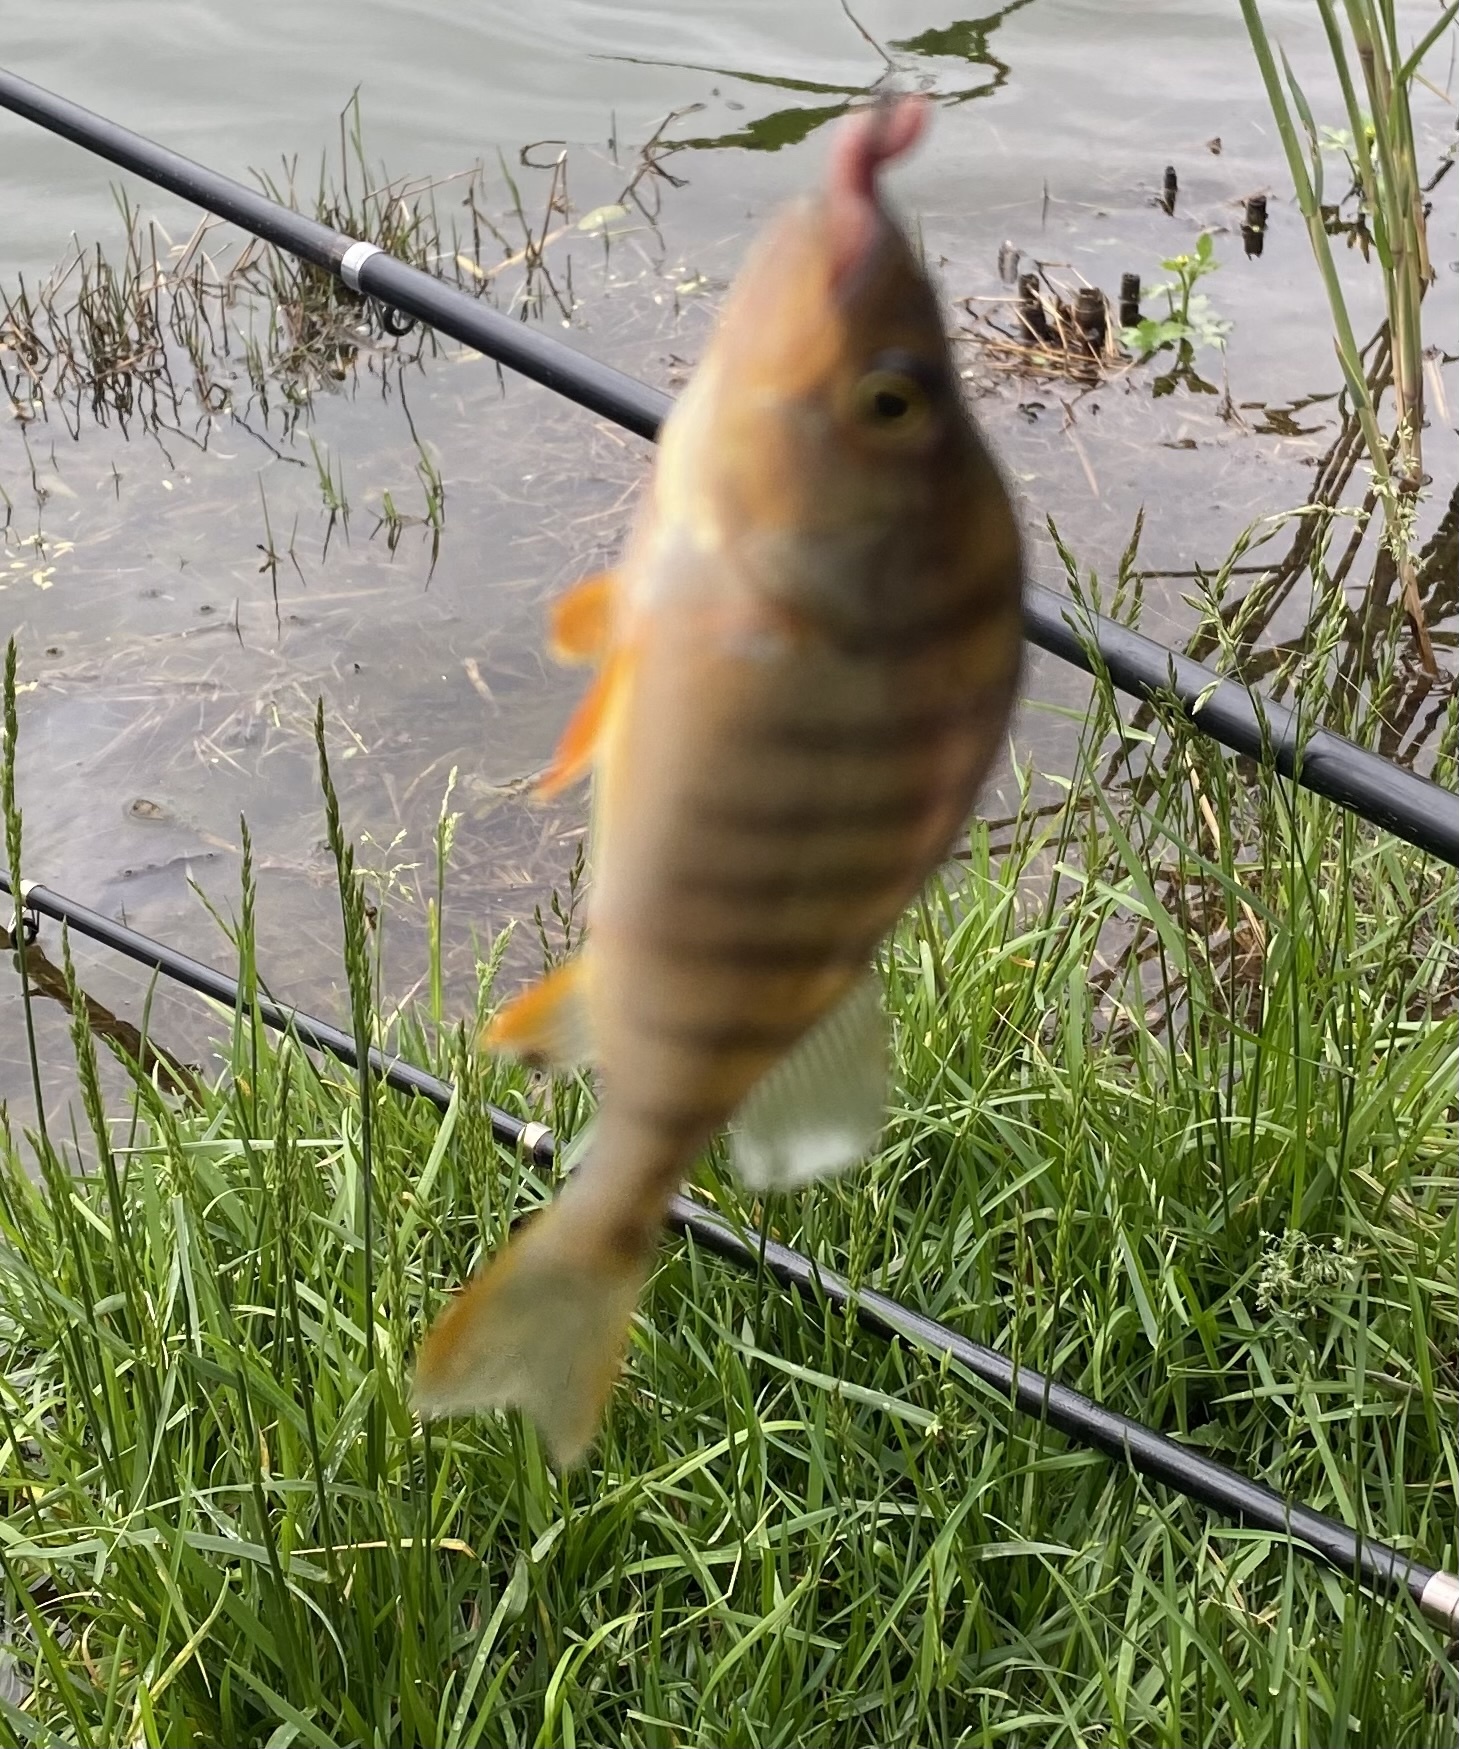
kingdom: Animalia
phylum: Chordata
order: Perciformes
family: Percidae
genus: Perca
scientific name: Perca fluviatilis
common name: Perch
